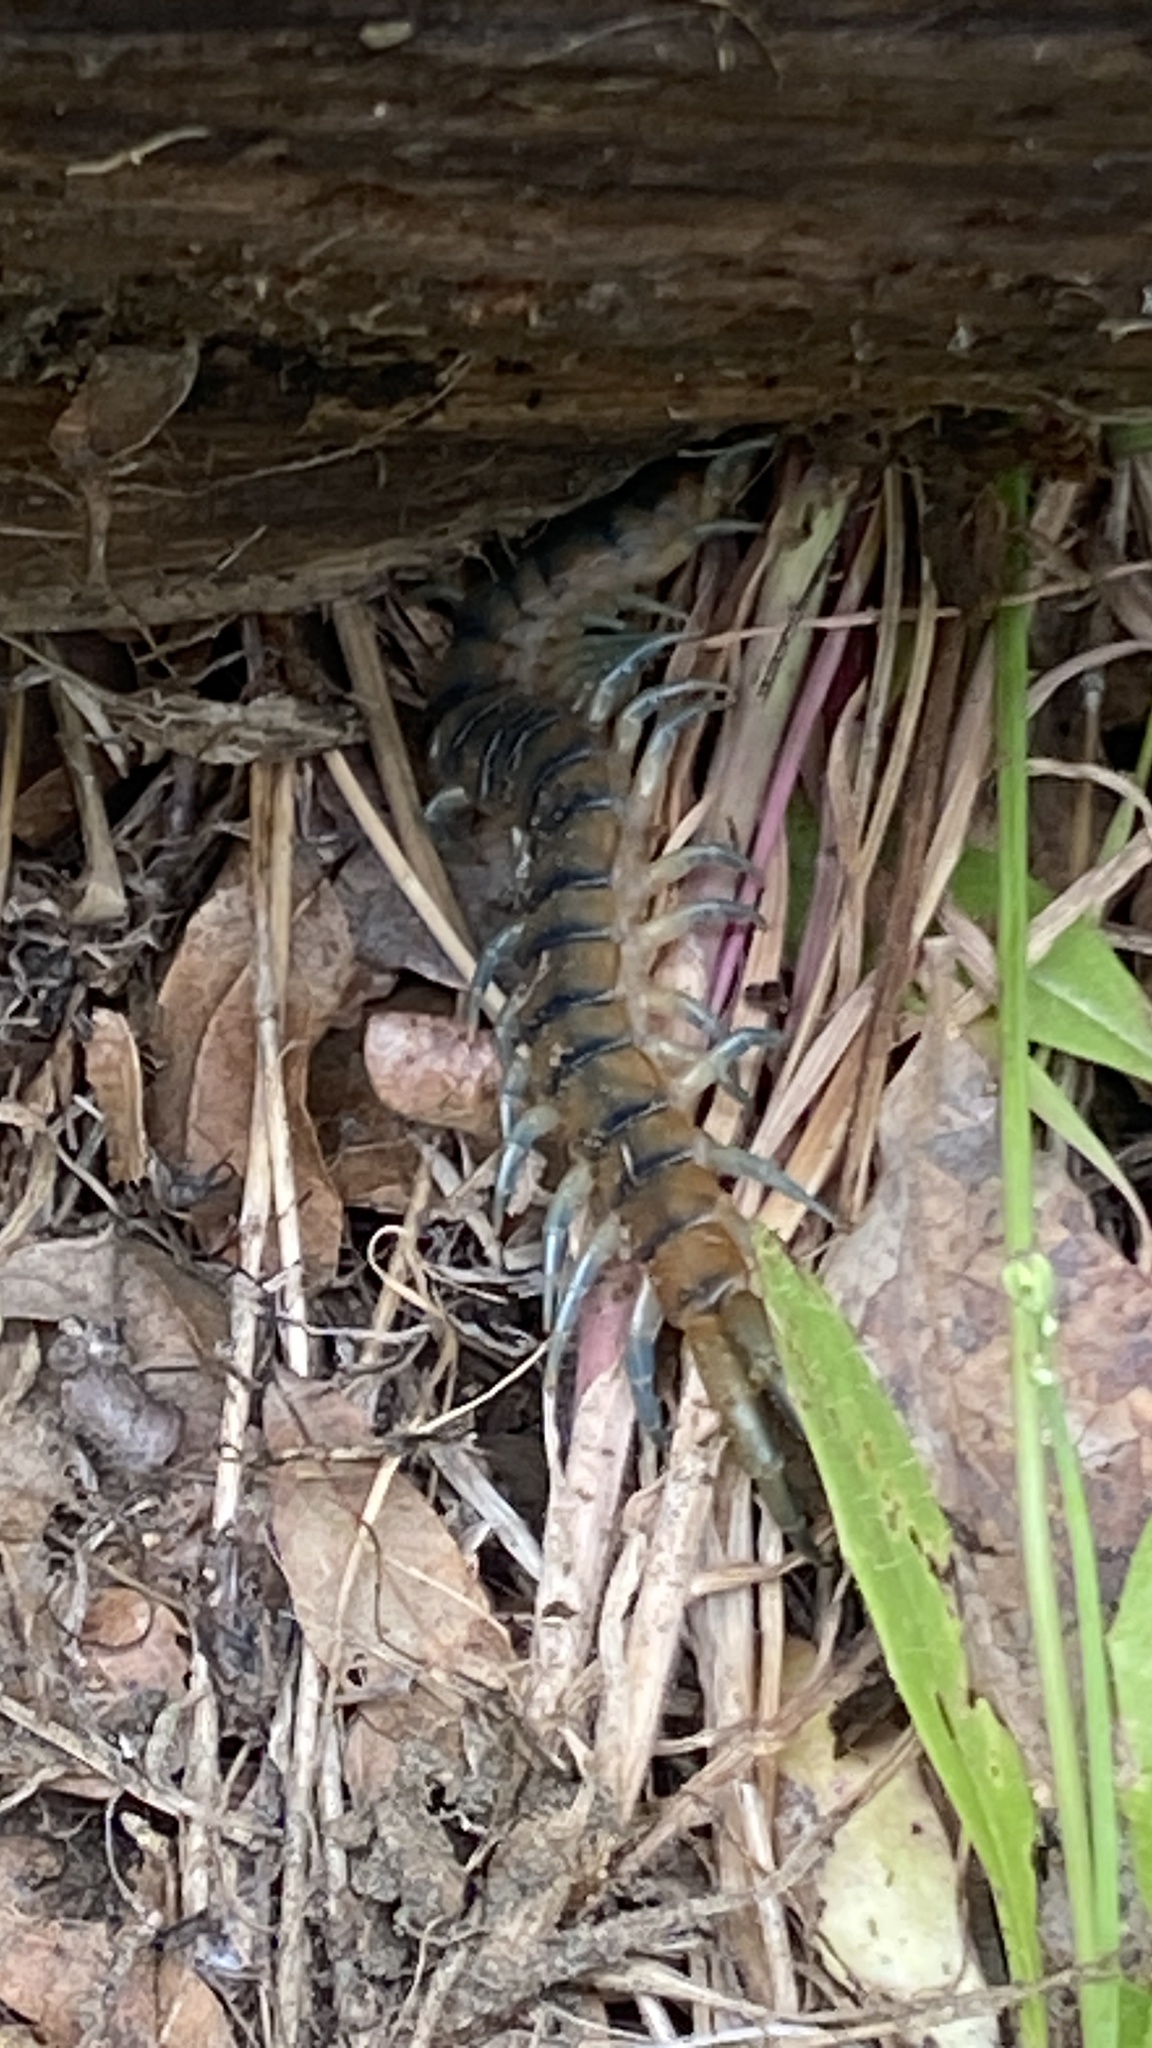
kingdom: Animalia
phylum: Arthropoda
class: Chilopoda
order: Scolopendromorpha
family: Scolopendridae
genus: Scolopendra
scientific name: Scolopendra polymorpha
